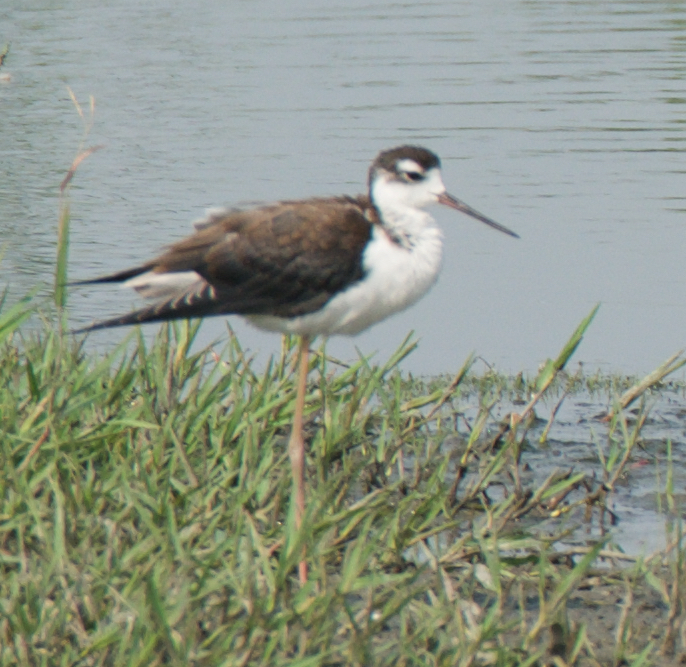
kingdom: Animalia
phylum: Chordata
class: Aves
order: Charadriiformes
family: Recurvirostridae
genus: Himantopus
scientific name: Himantopus mexicanus
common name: Black-necked stilt
